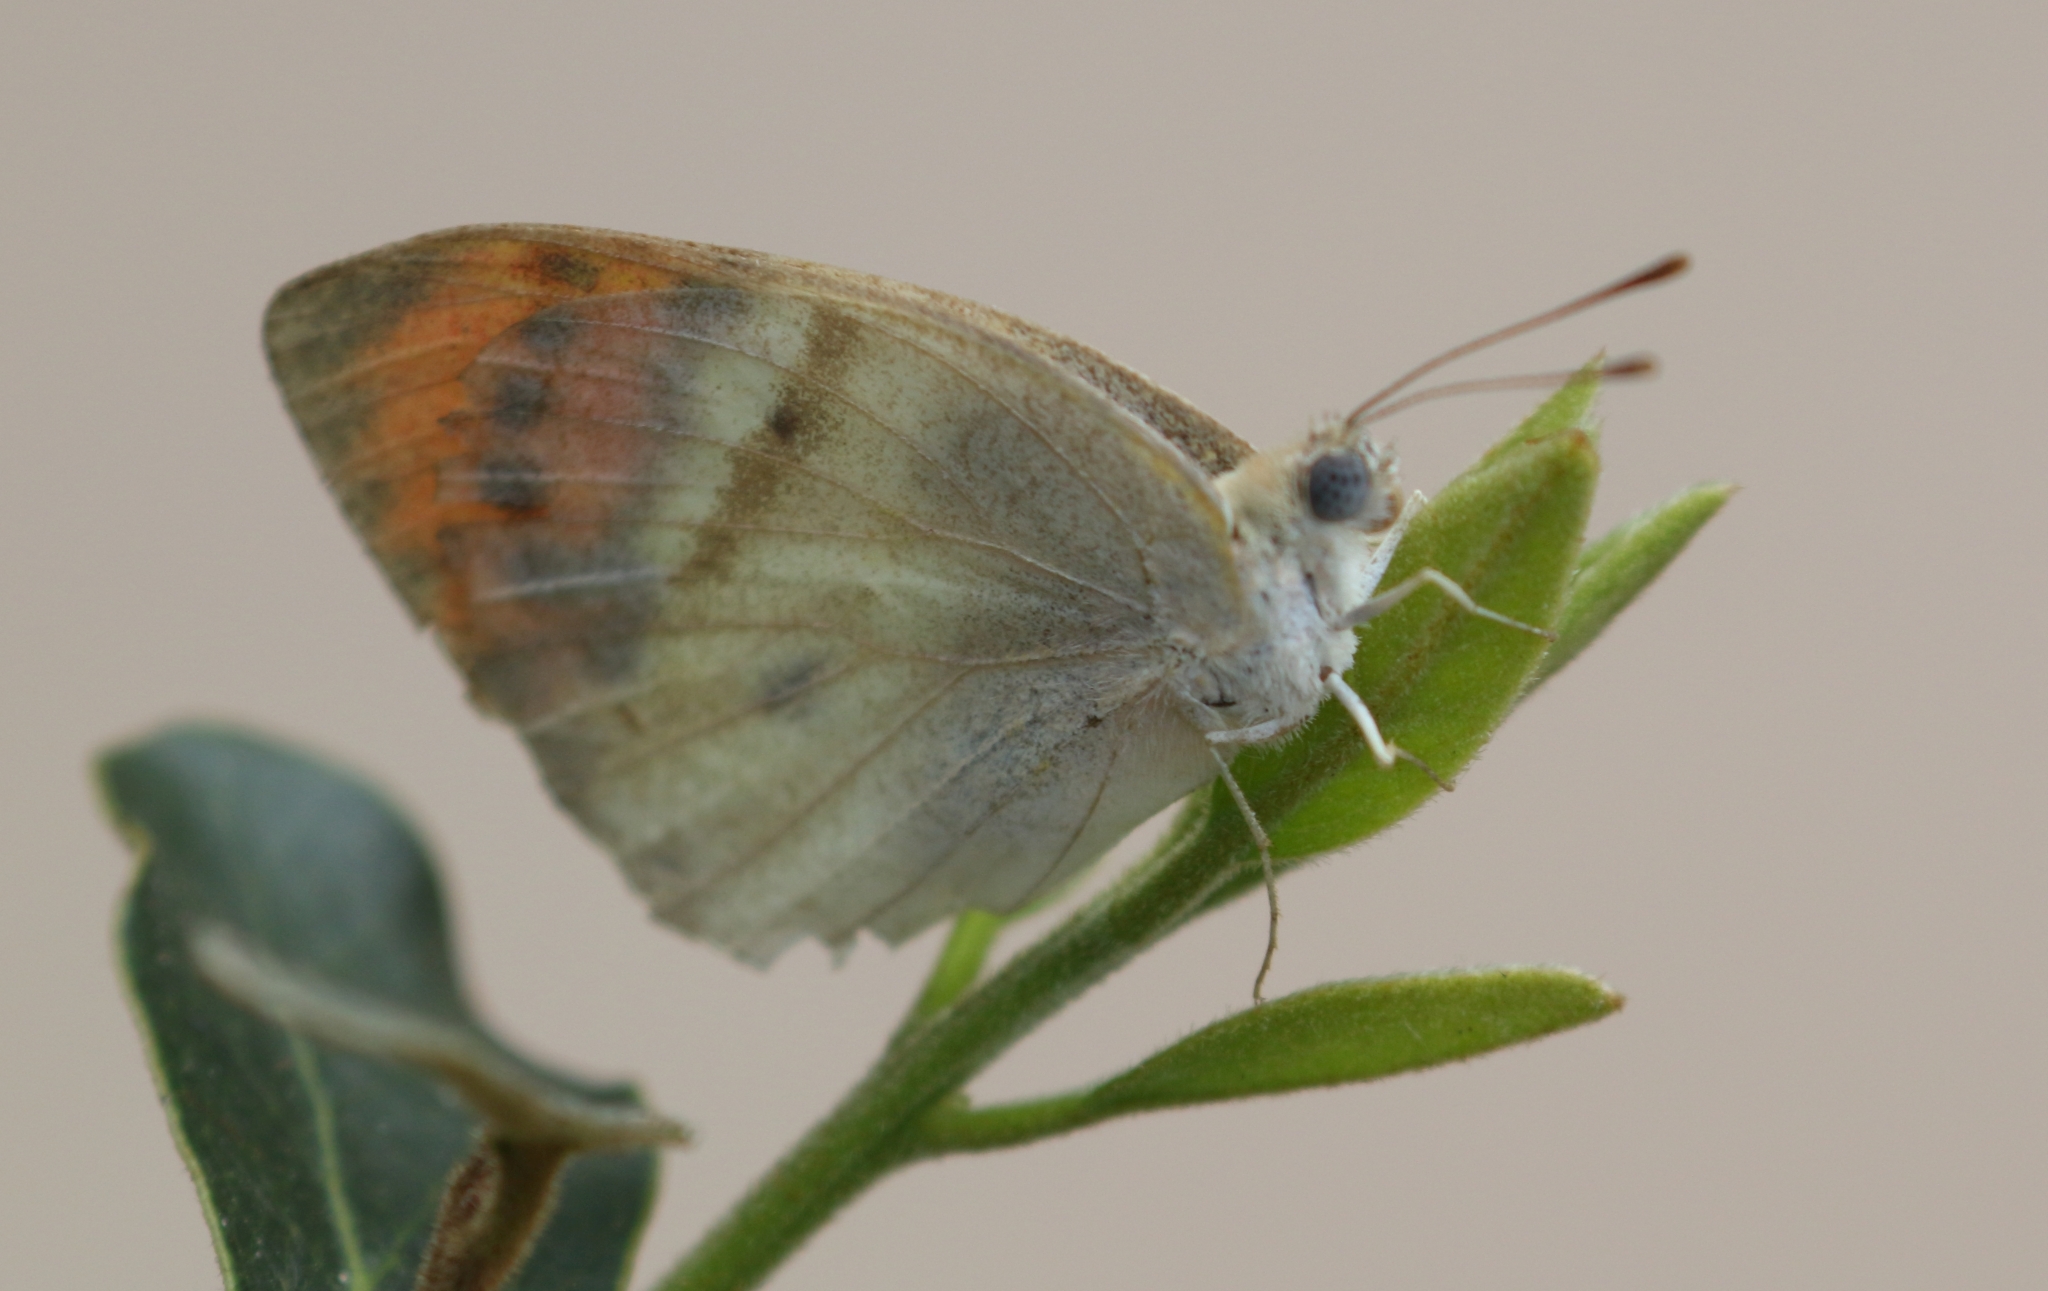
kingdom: Animalia
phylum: Arthropoda
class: Insecta
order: Lepidoptera
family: Pieridae
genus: Colotis
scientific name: Colotis ione
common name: Bushveld purple tip
